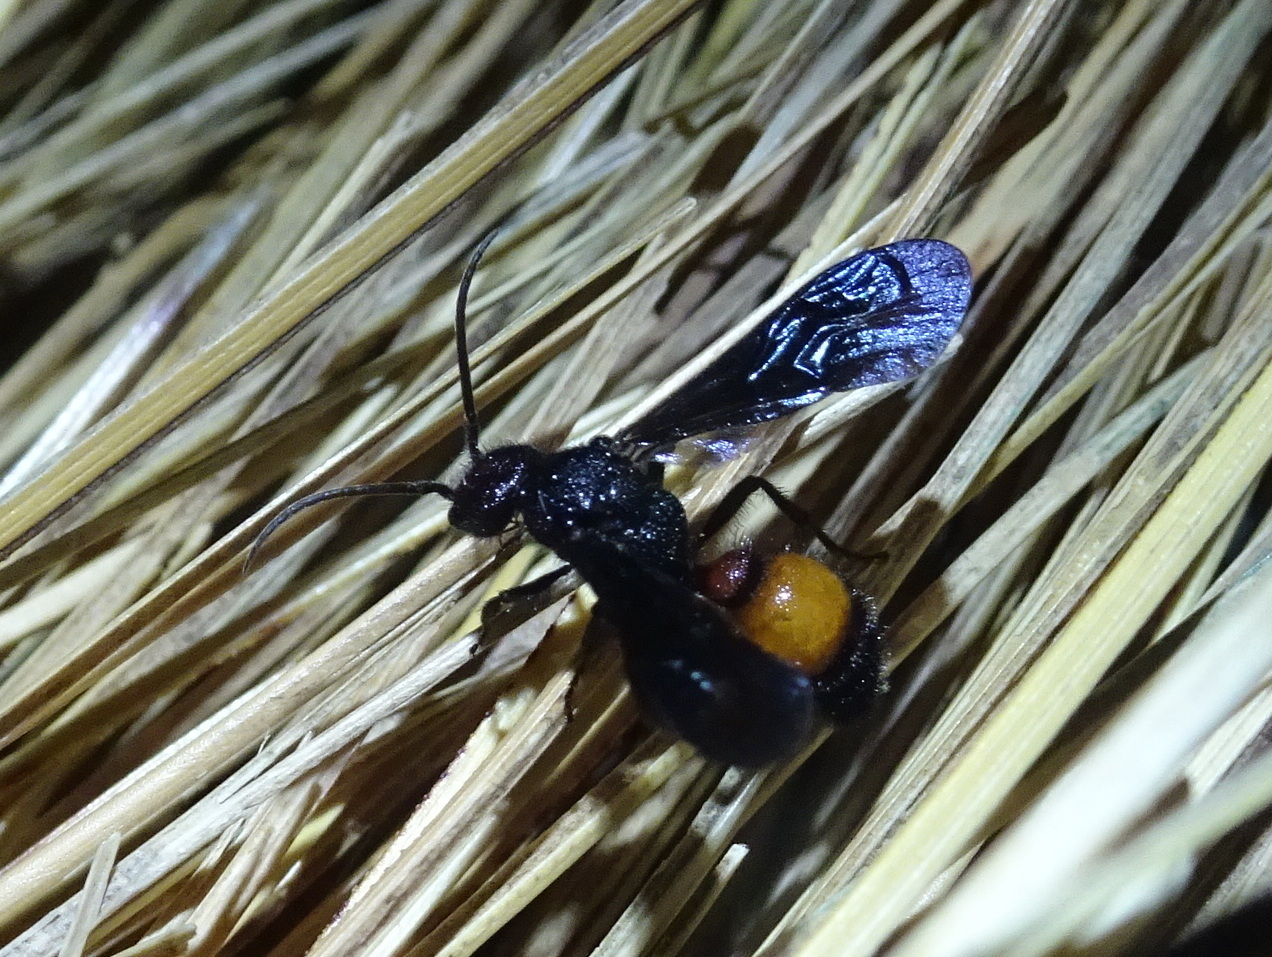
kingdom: Animalia
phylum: Arthropoda
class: Insecta
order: Hymenoptera
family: Mutillidae
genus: Sphaeropthalma
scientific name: Sphaeropthalma
